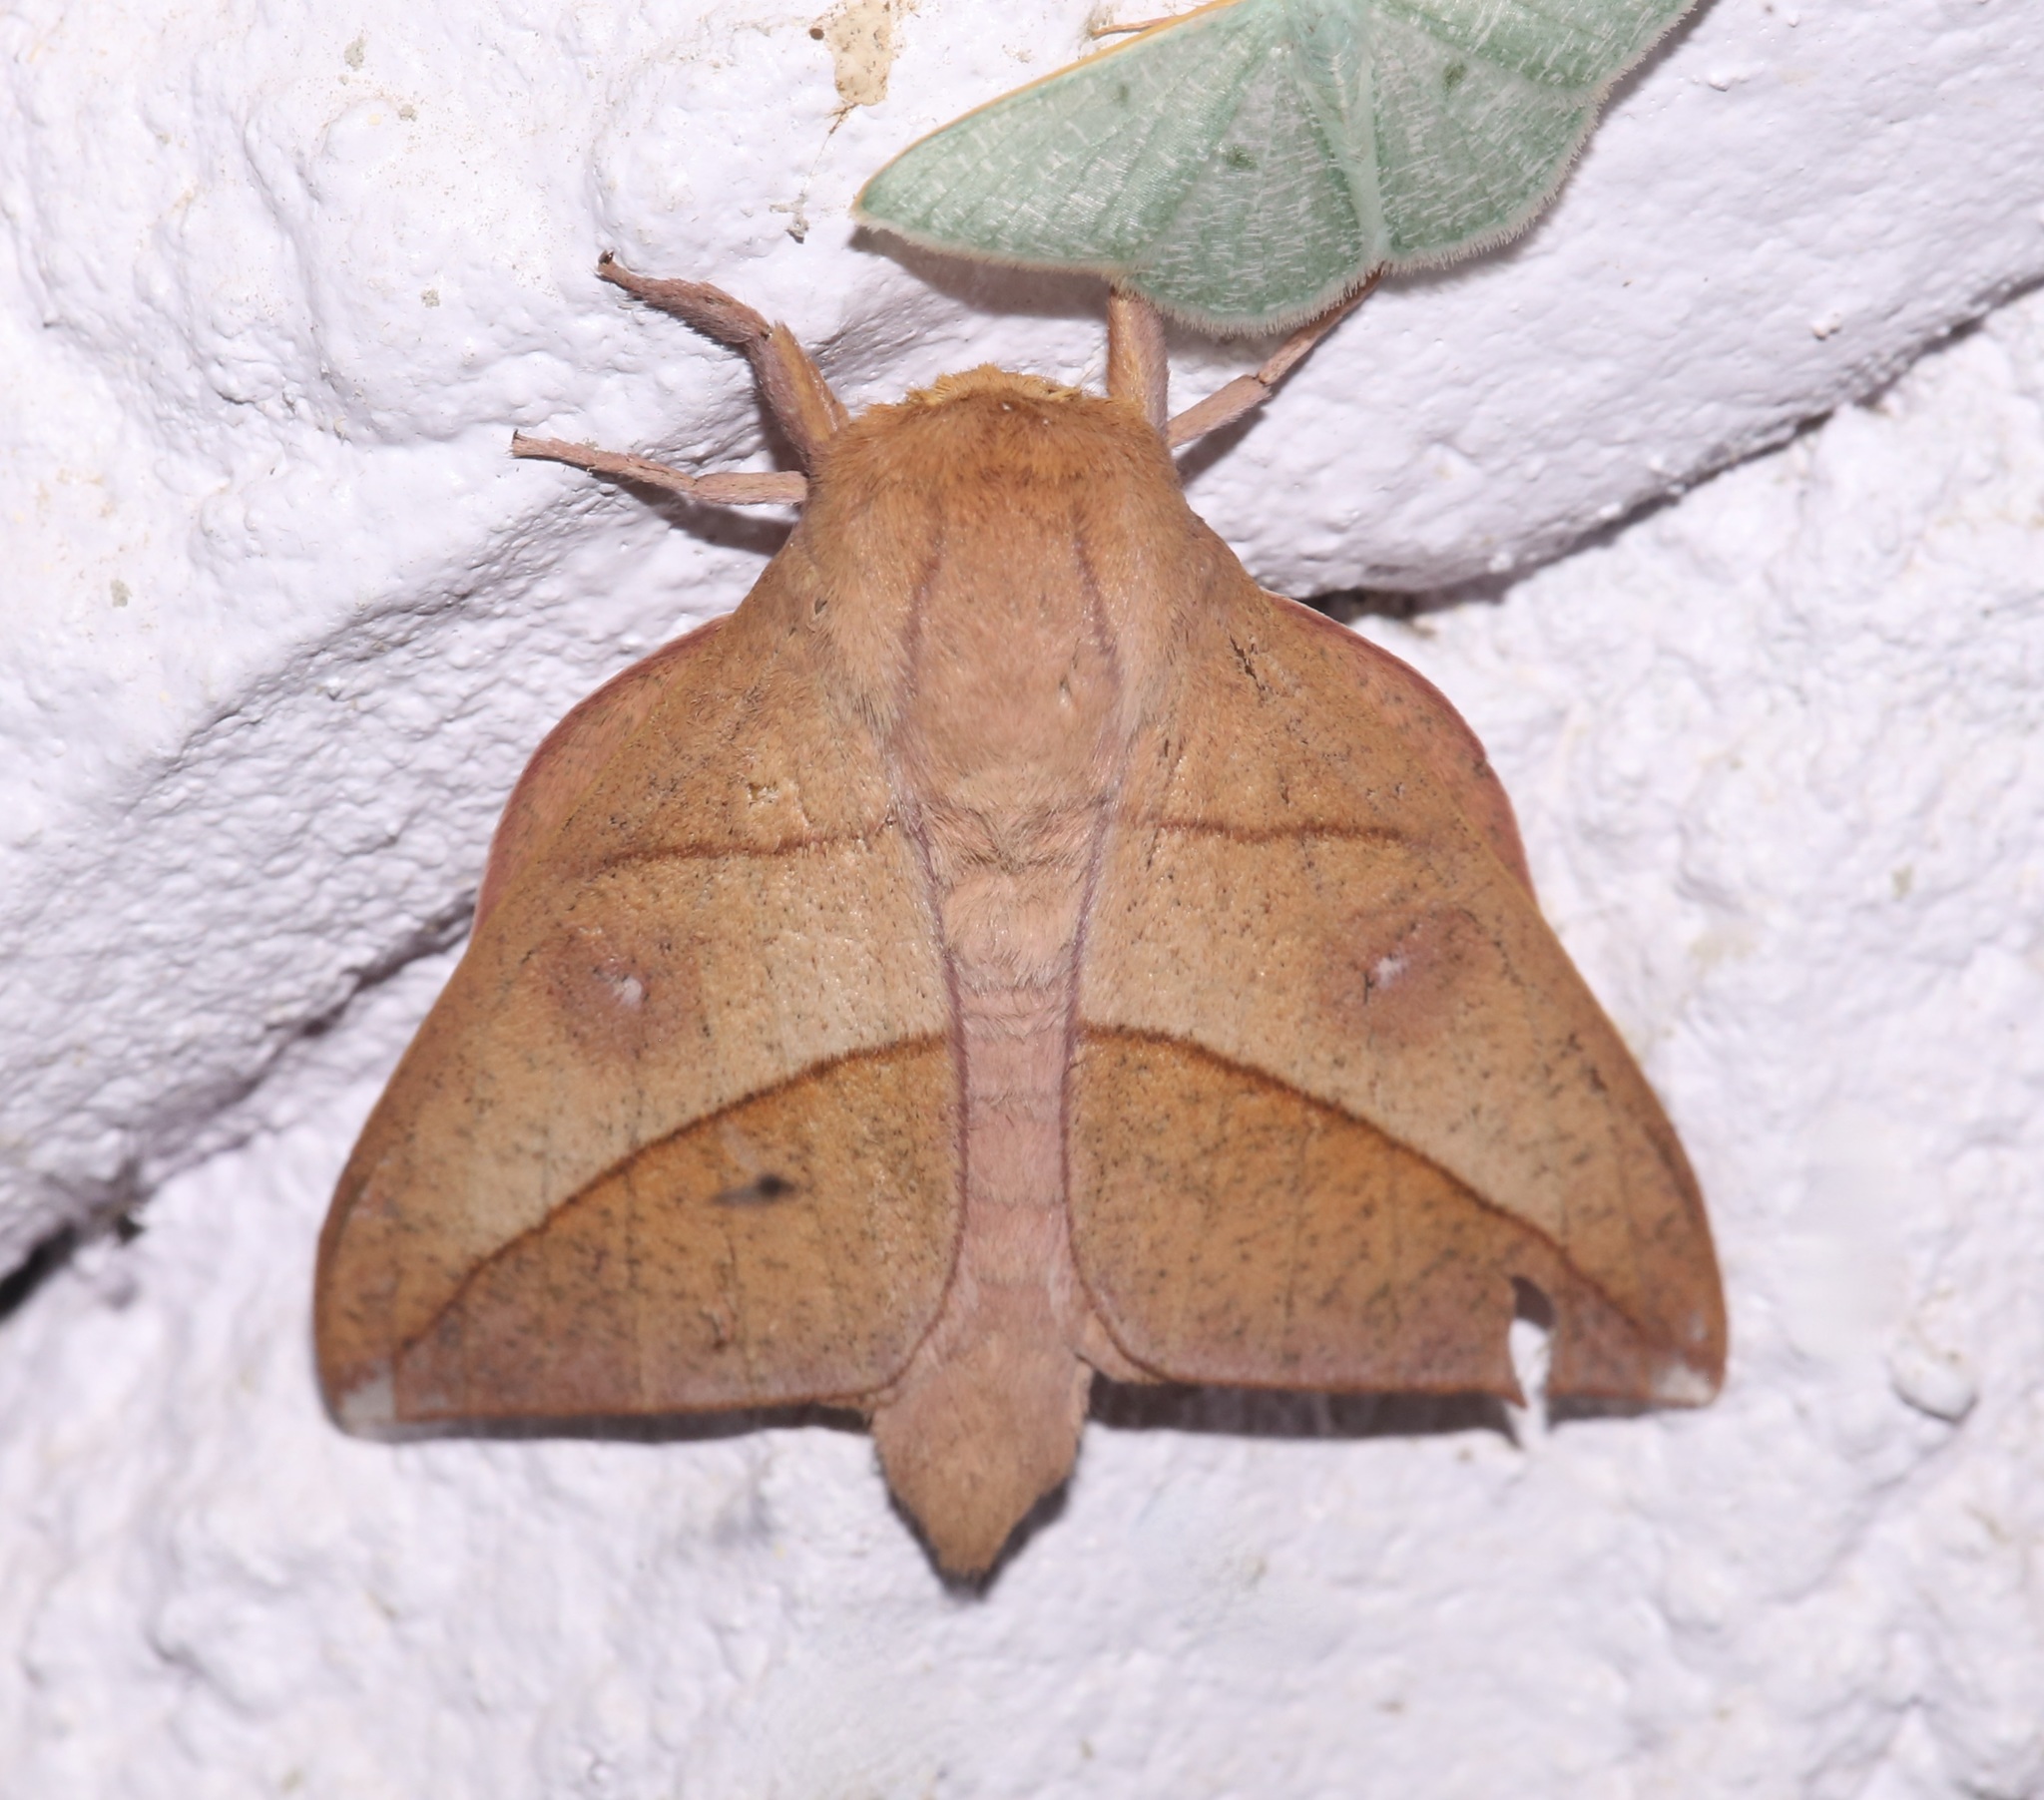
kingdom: Animalia
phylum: Arthropoda
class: Insecta
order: Lepidoptera
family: Saturniidae
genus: Adeloneivaia
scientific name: Adeloneivaia acuta
